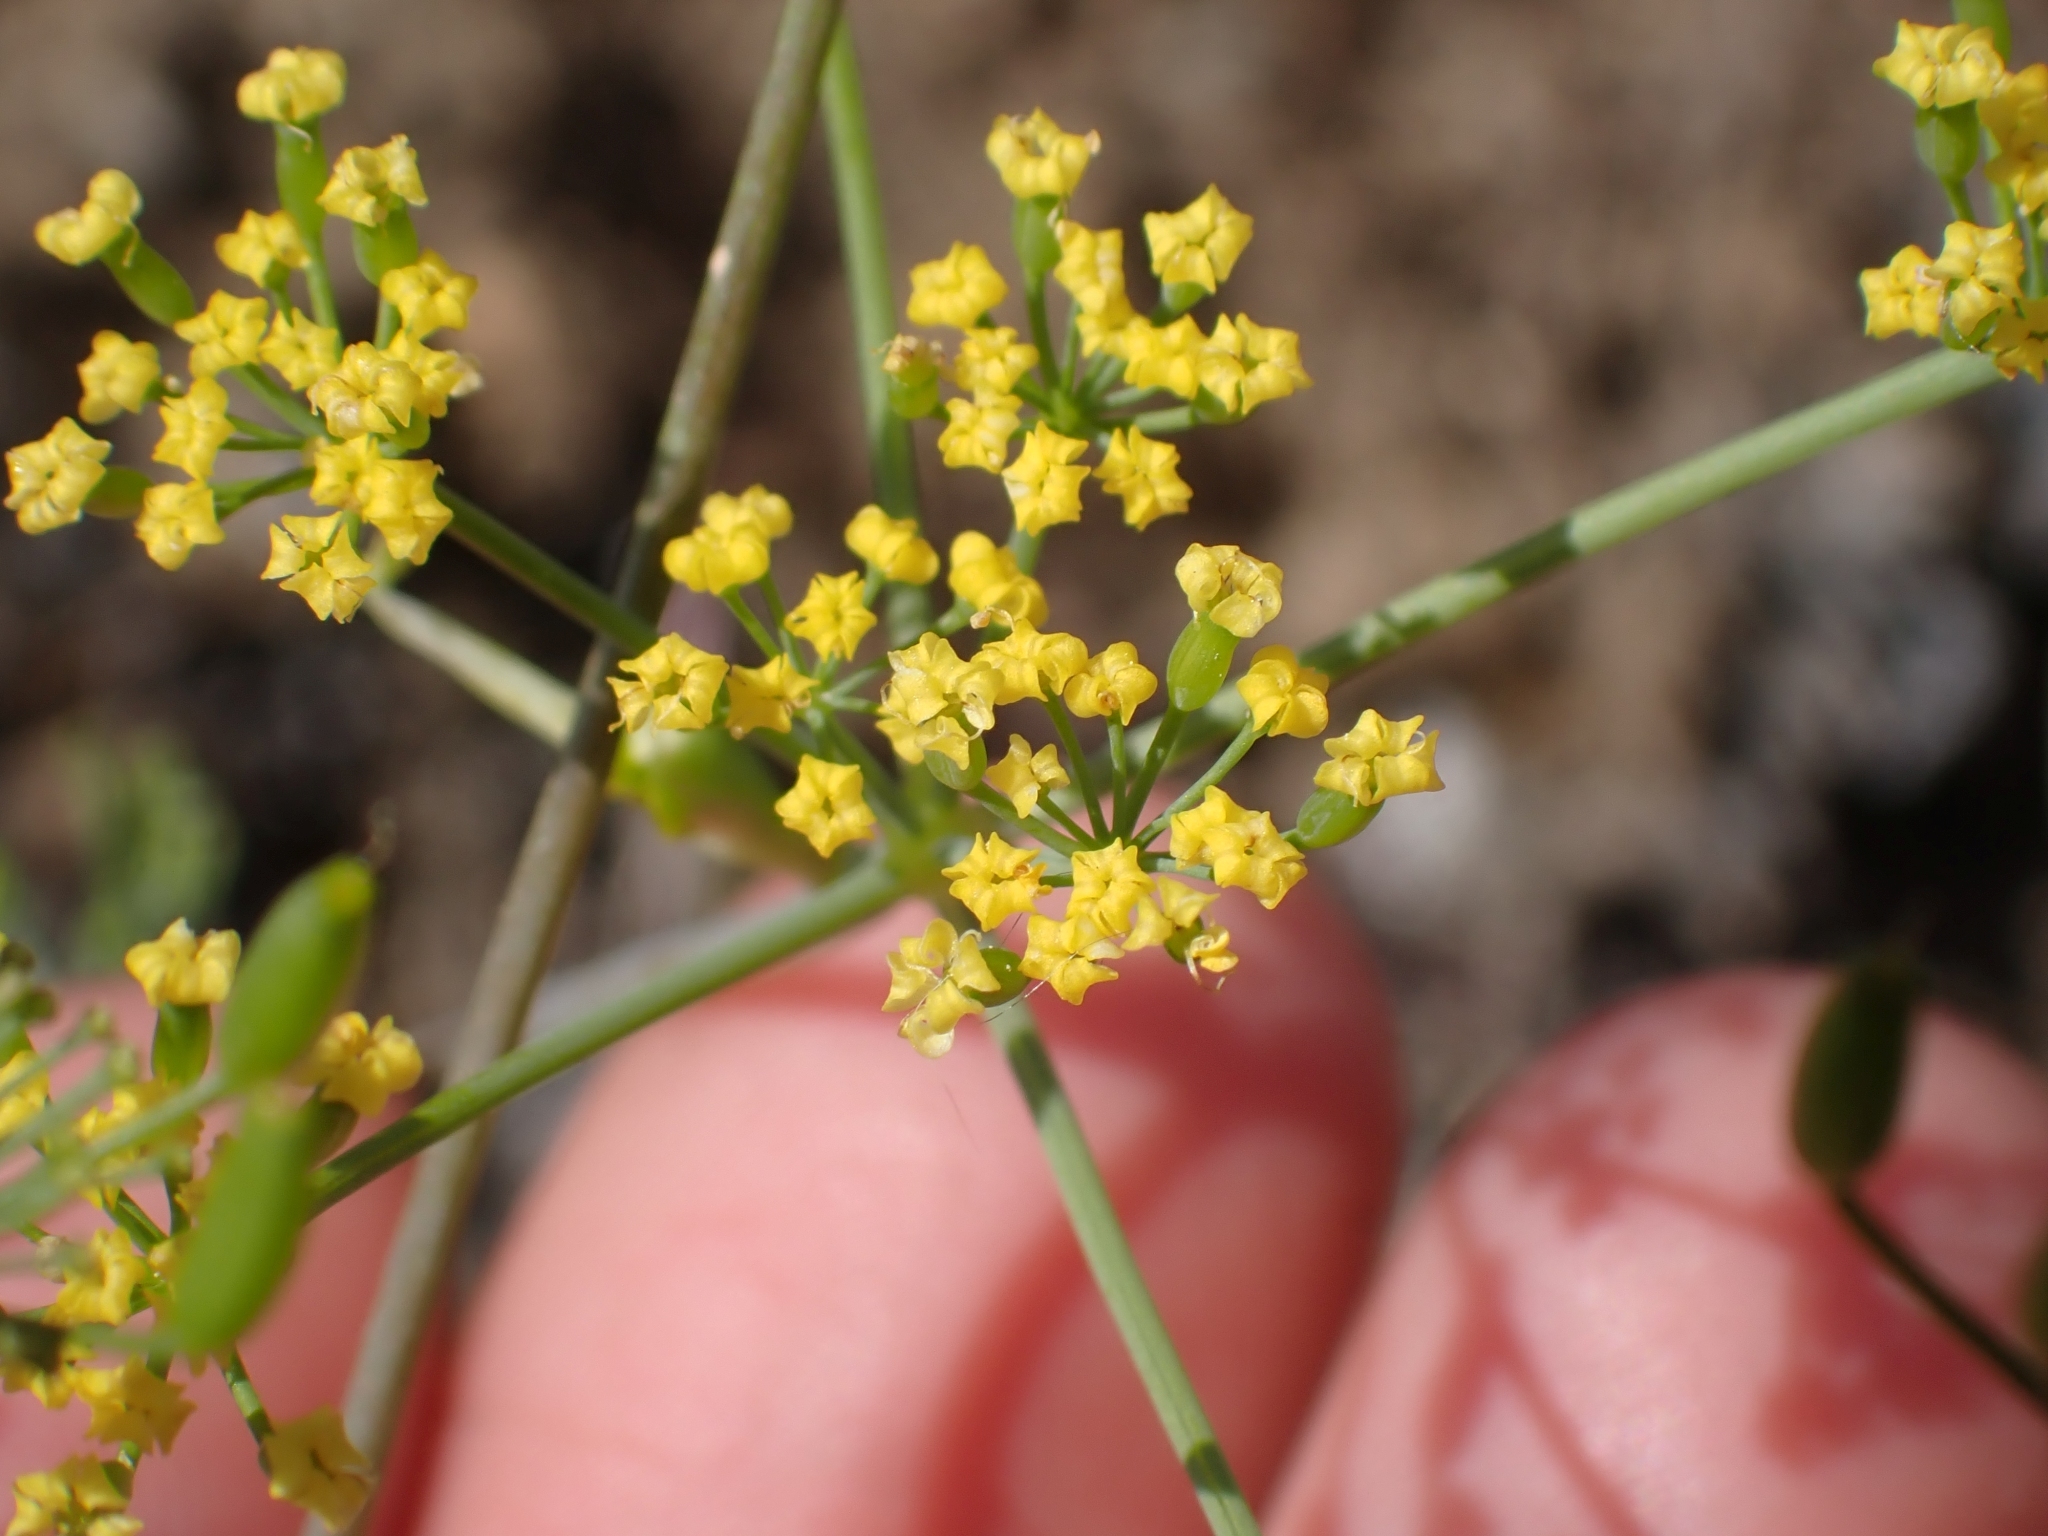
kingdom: Plantae
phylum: Tracheophyta
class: Magnoliopsida
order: Apiales
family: Apiaceae
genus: Lomatium
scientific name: Lomatium ambiguum
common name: Lacy lomatium
